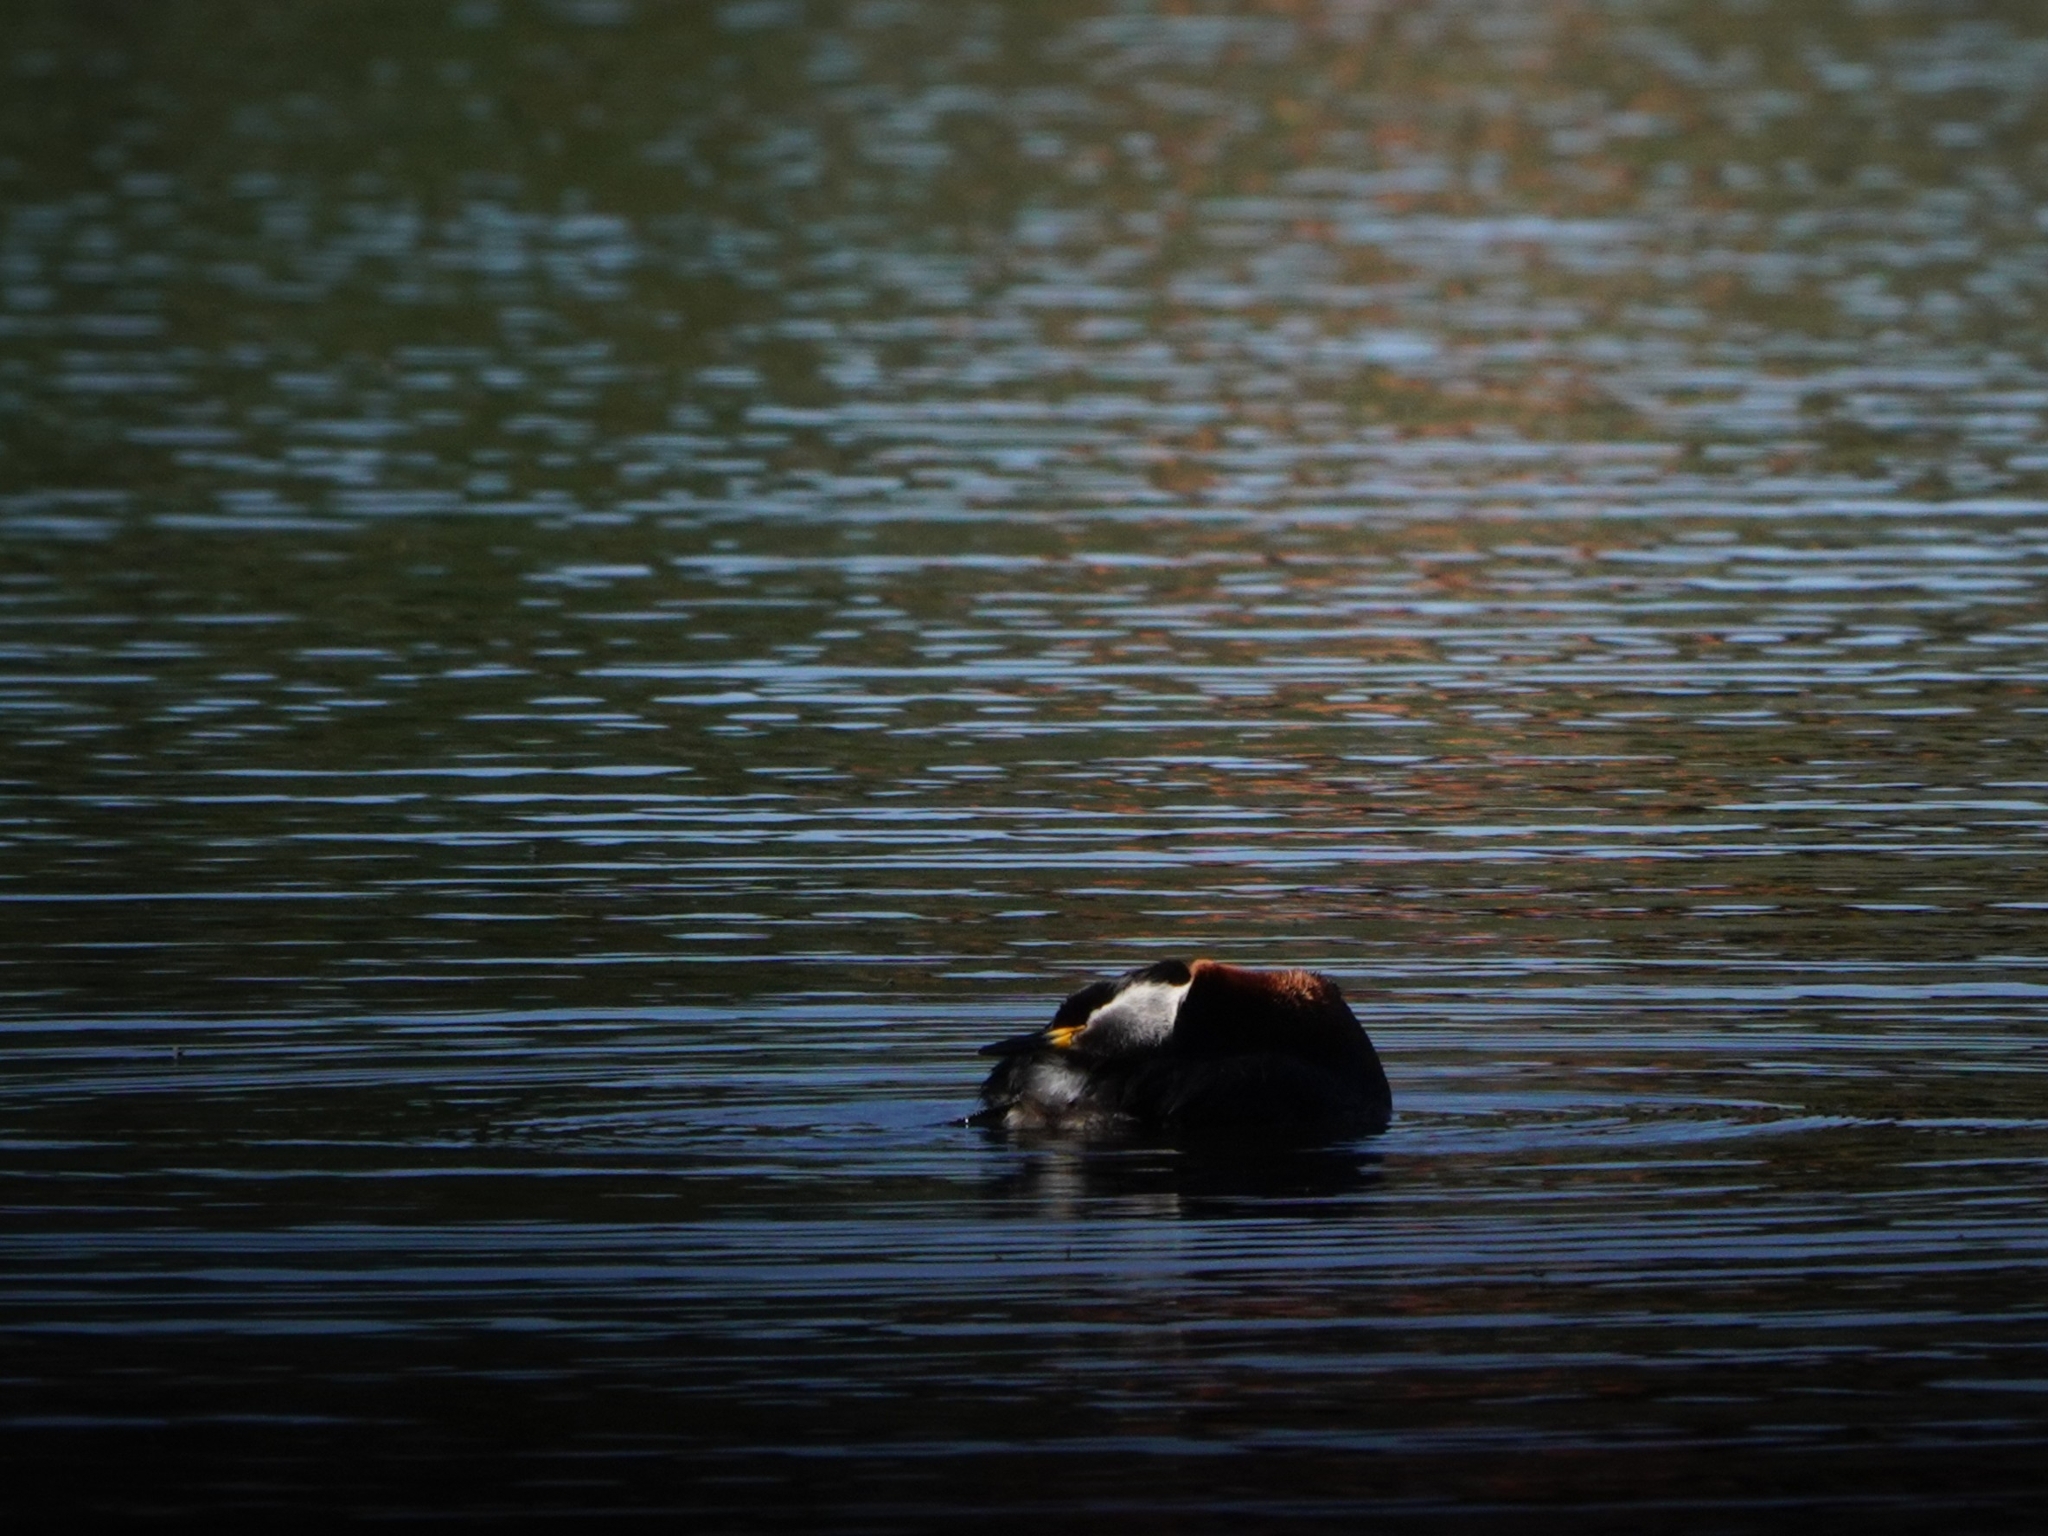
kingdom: Animalia
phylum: Chordata
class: Aves
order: Podicipediformes
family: Podicipedidae
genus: Podiceps
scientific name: Podiceps grisegena
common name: Red-necked grebe
